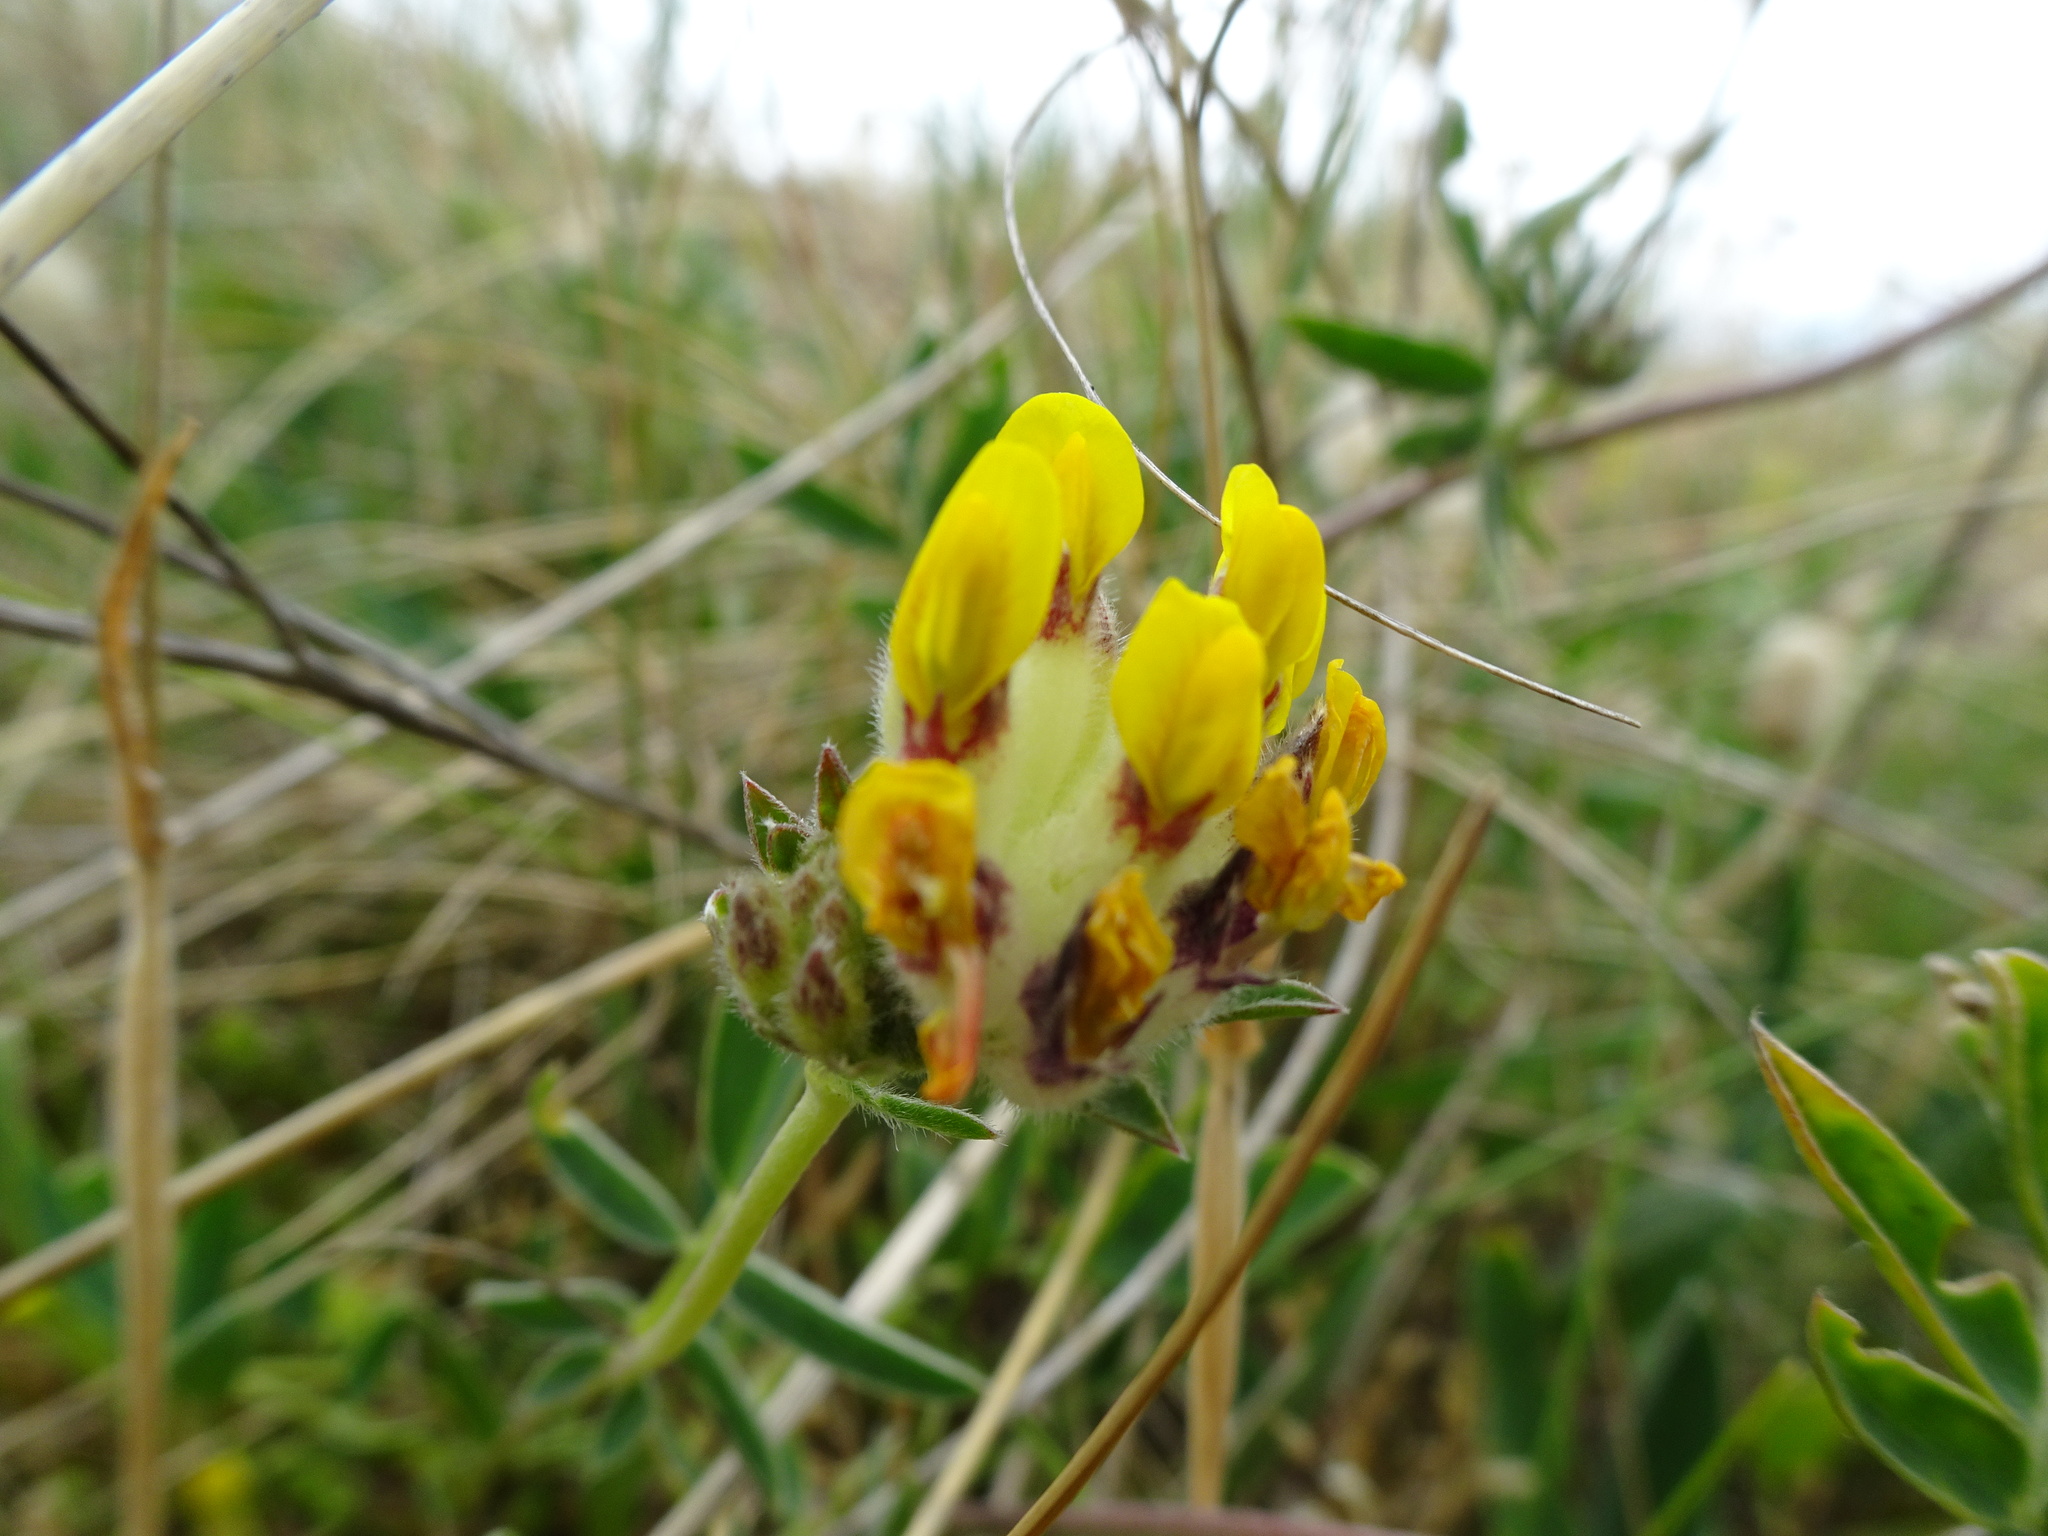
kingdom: Plantae
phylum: Tracheophyta
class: Magnoliopsida
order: Fabales
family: Fabaceae
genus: Anthyllis
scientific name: Anthyllis vulneraria
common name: Kidney vetch
